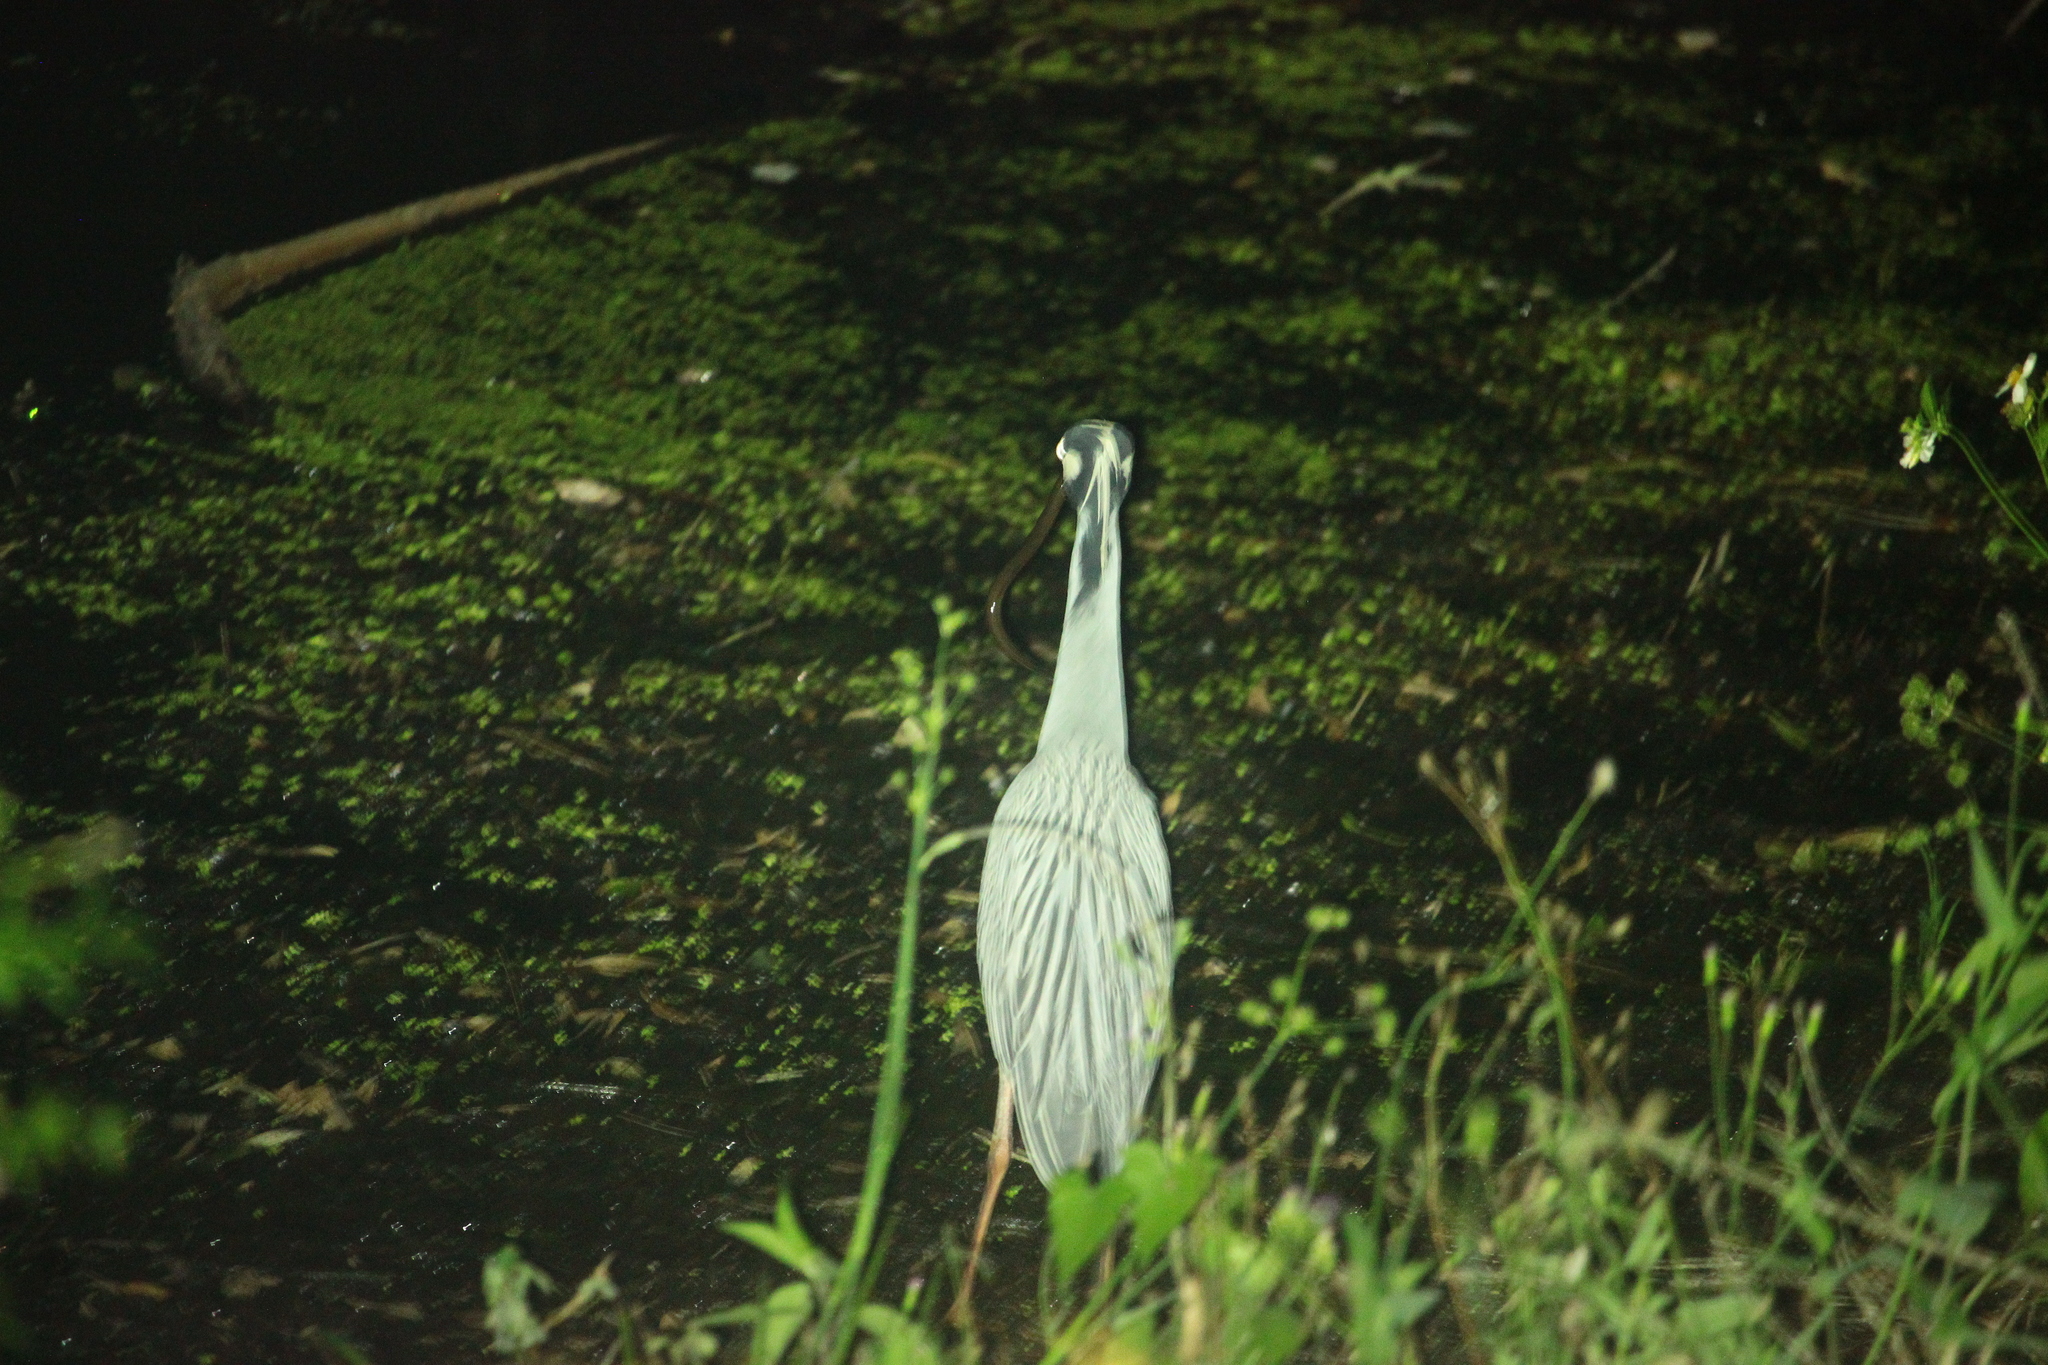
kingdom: Animalia
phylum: Chordata
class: Aves
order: Pelecaniformes
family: Ardeidae
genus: Nyctanassa
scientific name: Nyctanassa violacea
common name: Yellow-crowned night heron
